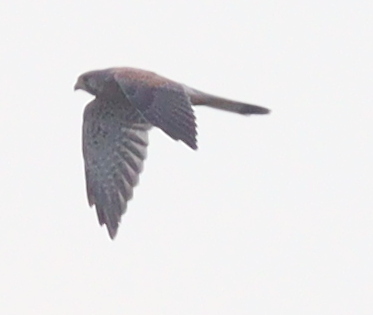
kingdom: Animalia
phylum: Chordata
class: Aves
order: Falconiformes
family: Falconidae
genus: Falco
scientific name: Falco tinnunculus
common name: Common kestrel
